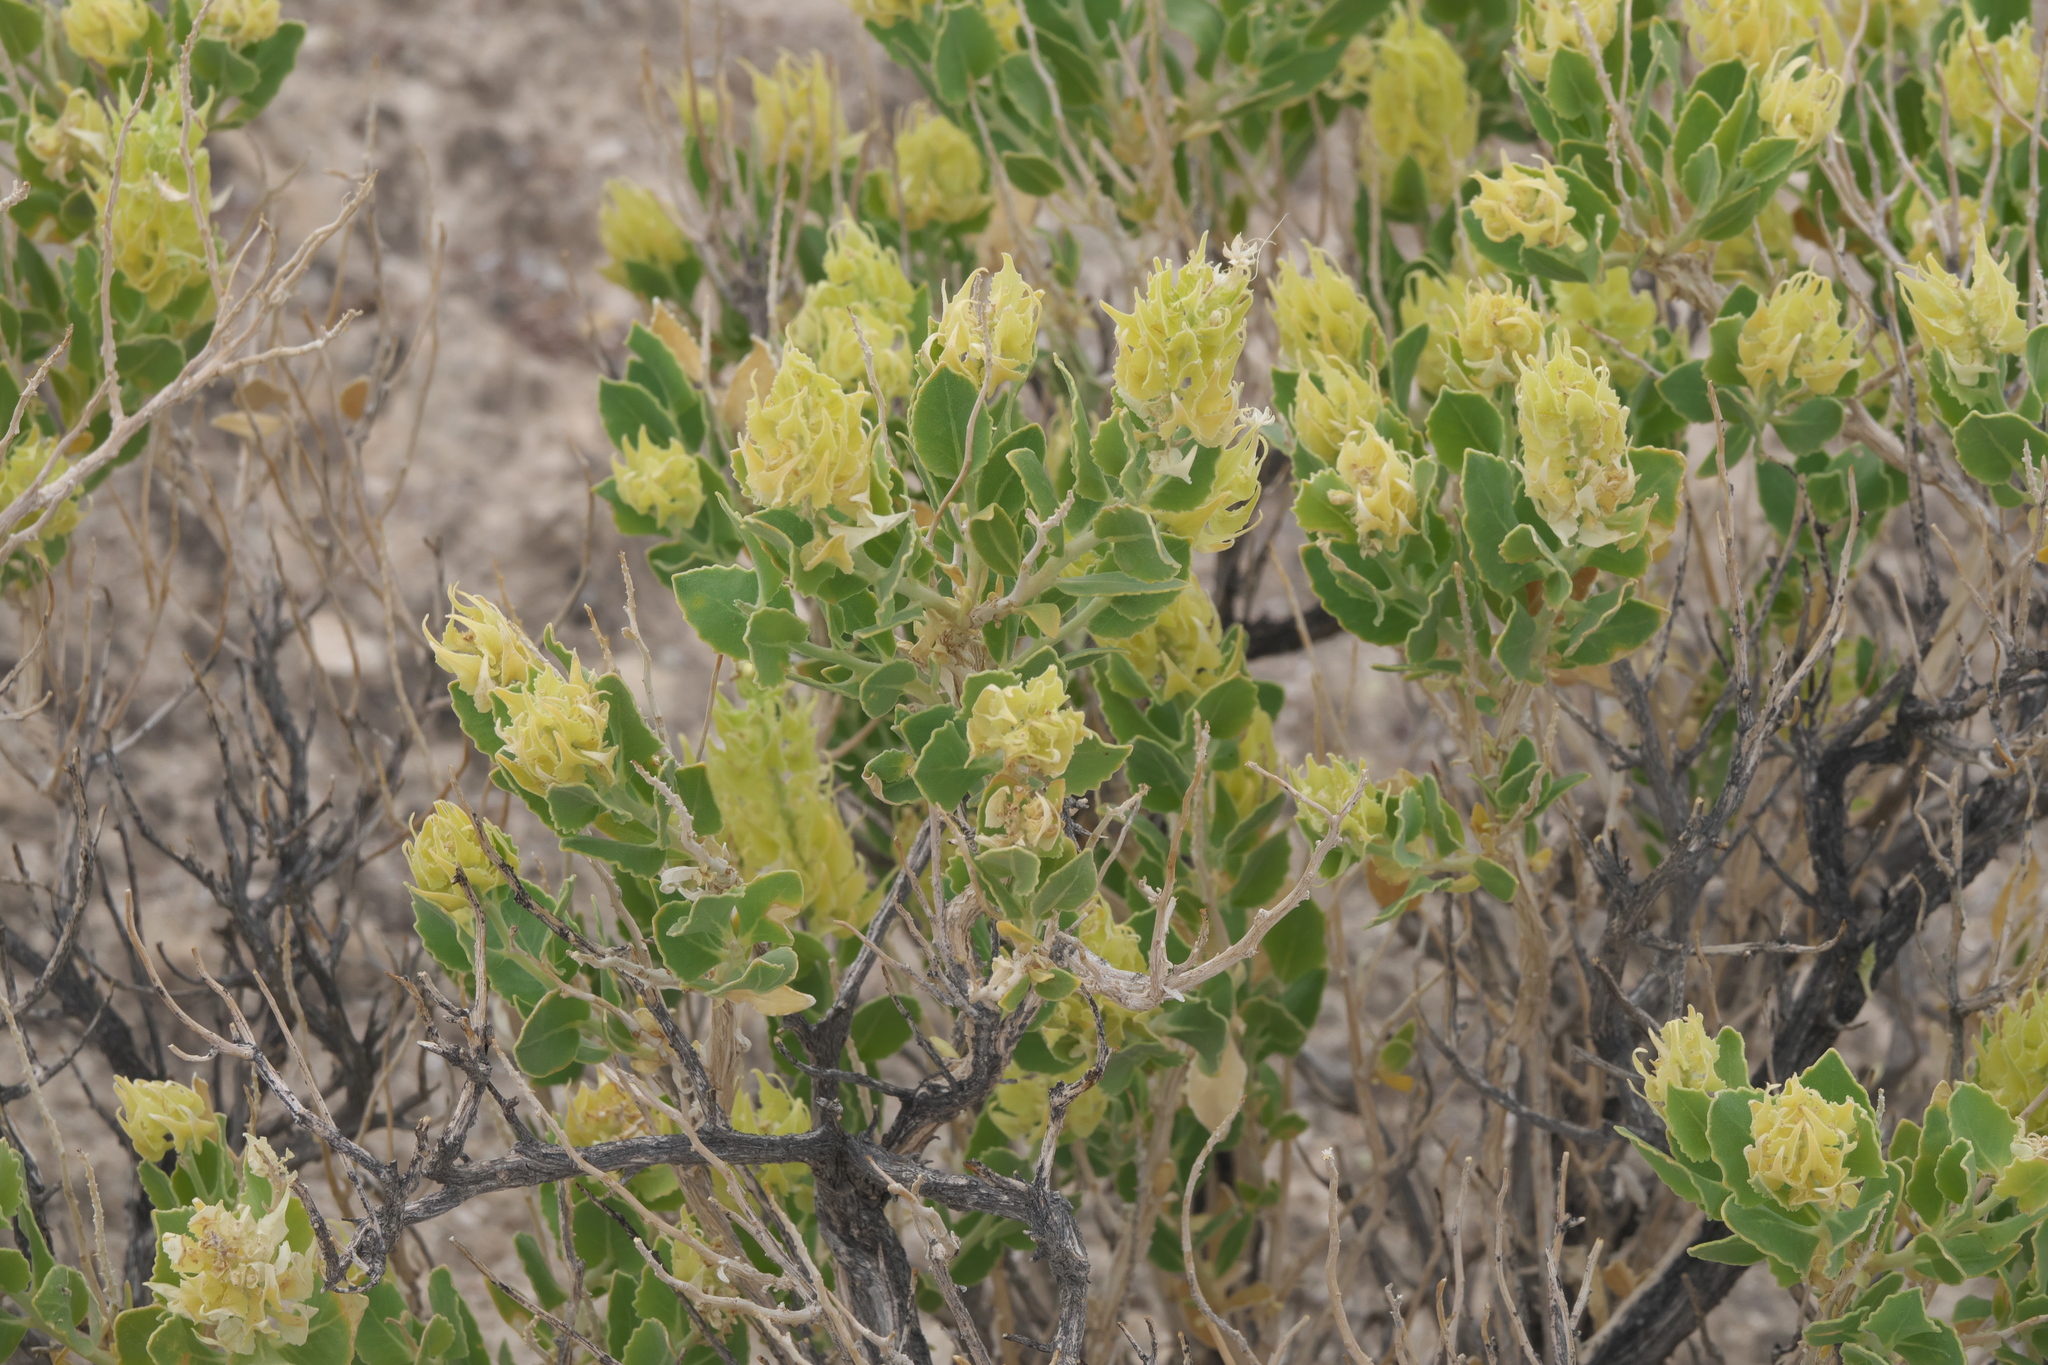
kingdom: Plantae
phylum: Tracheophyta
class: Magnoliopsida
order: Cornales
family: Loasaceae
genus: Petalonyx
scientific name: Petalonyx nitidus
